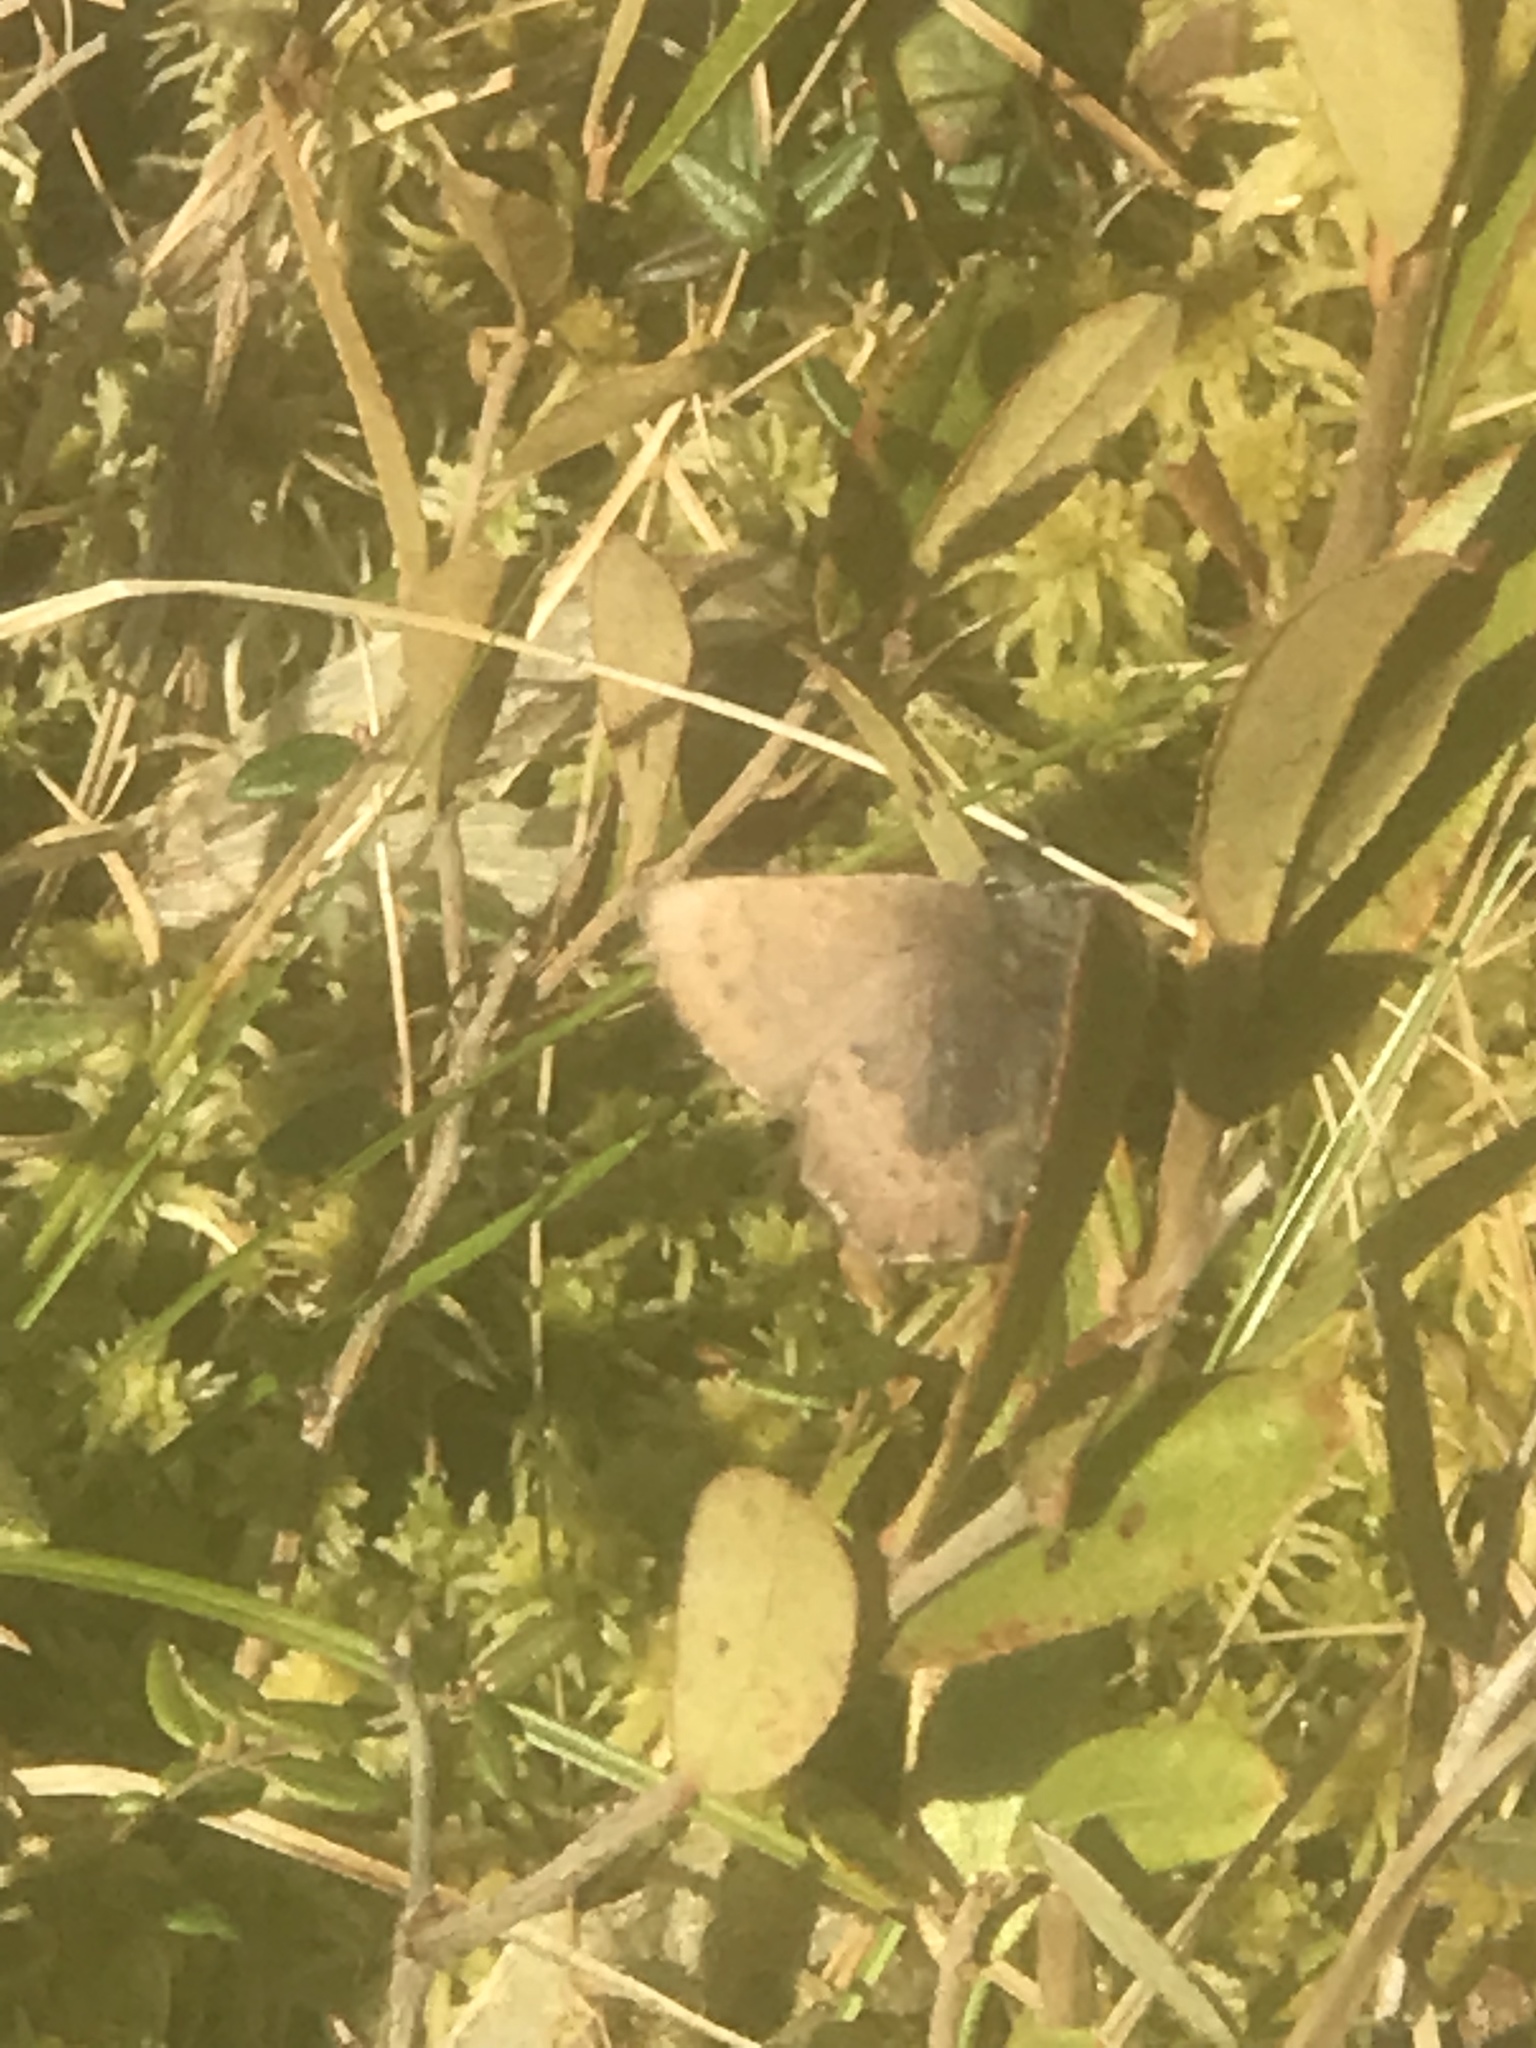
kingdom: Animalia
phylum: Arthropoda
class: Insecta
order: Lepidoptera
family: Lycaenidae
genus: Incisalia
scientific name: Incisalia irioides
